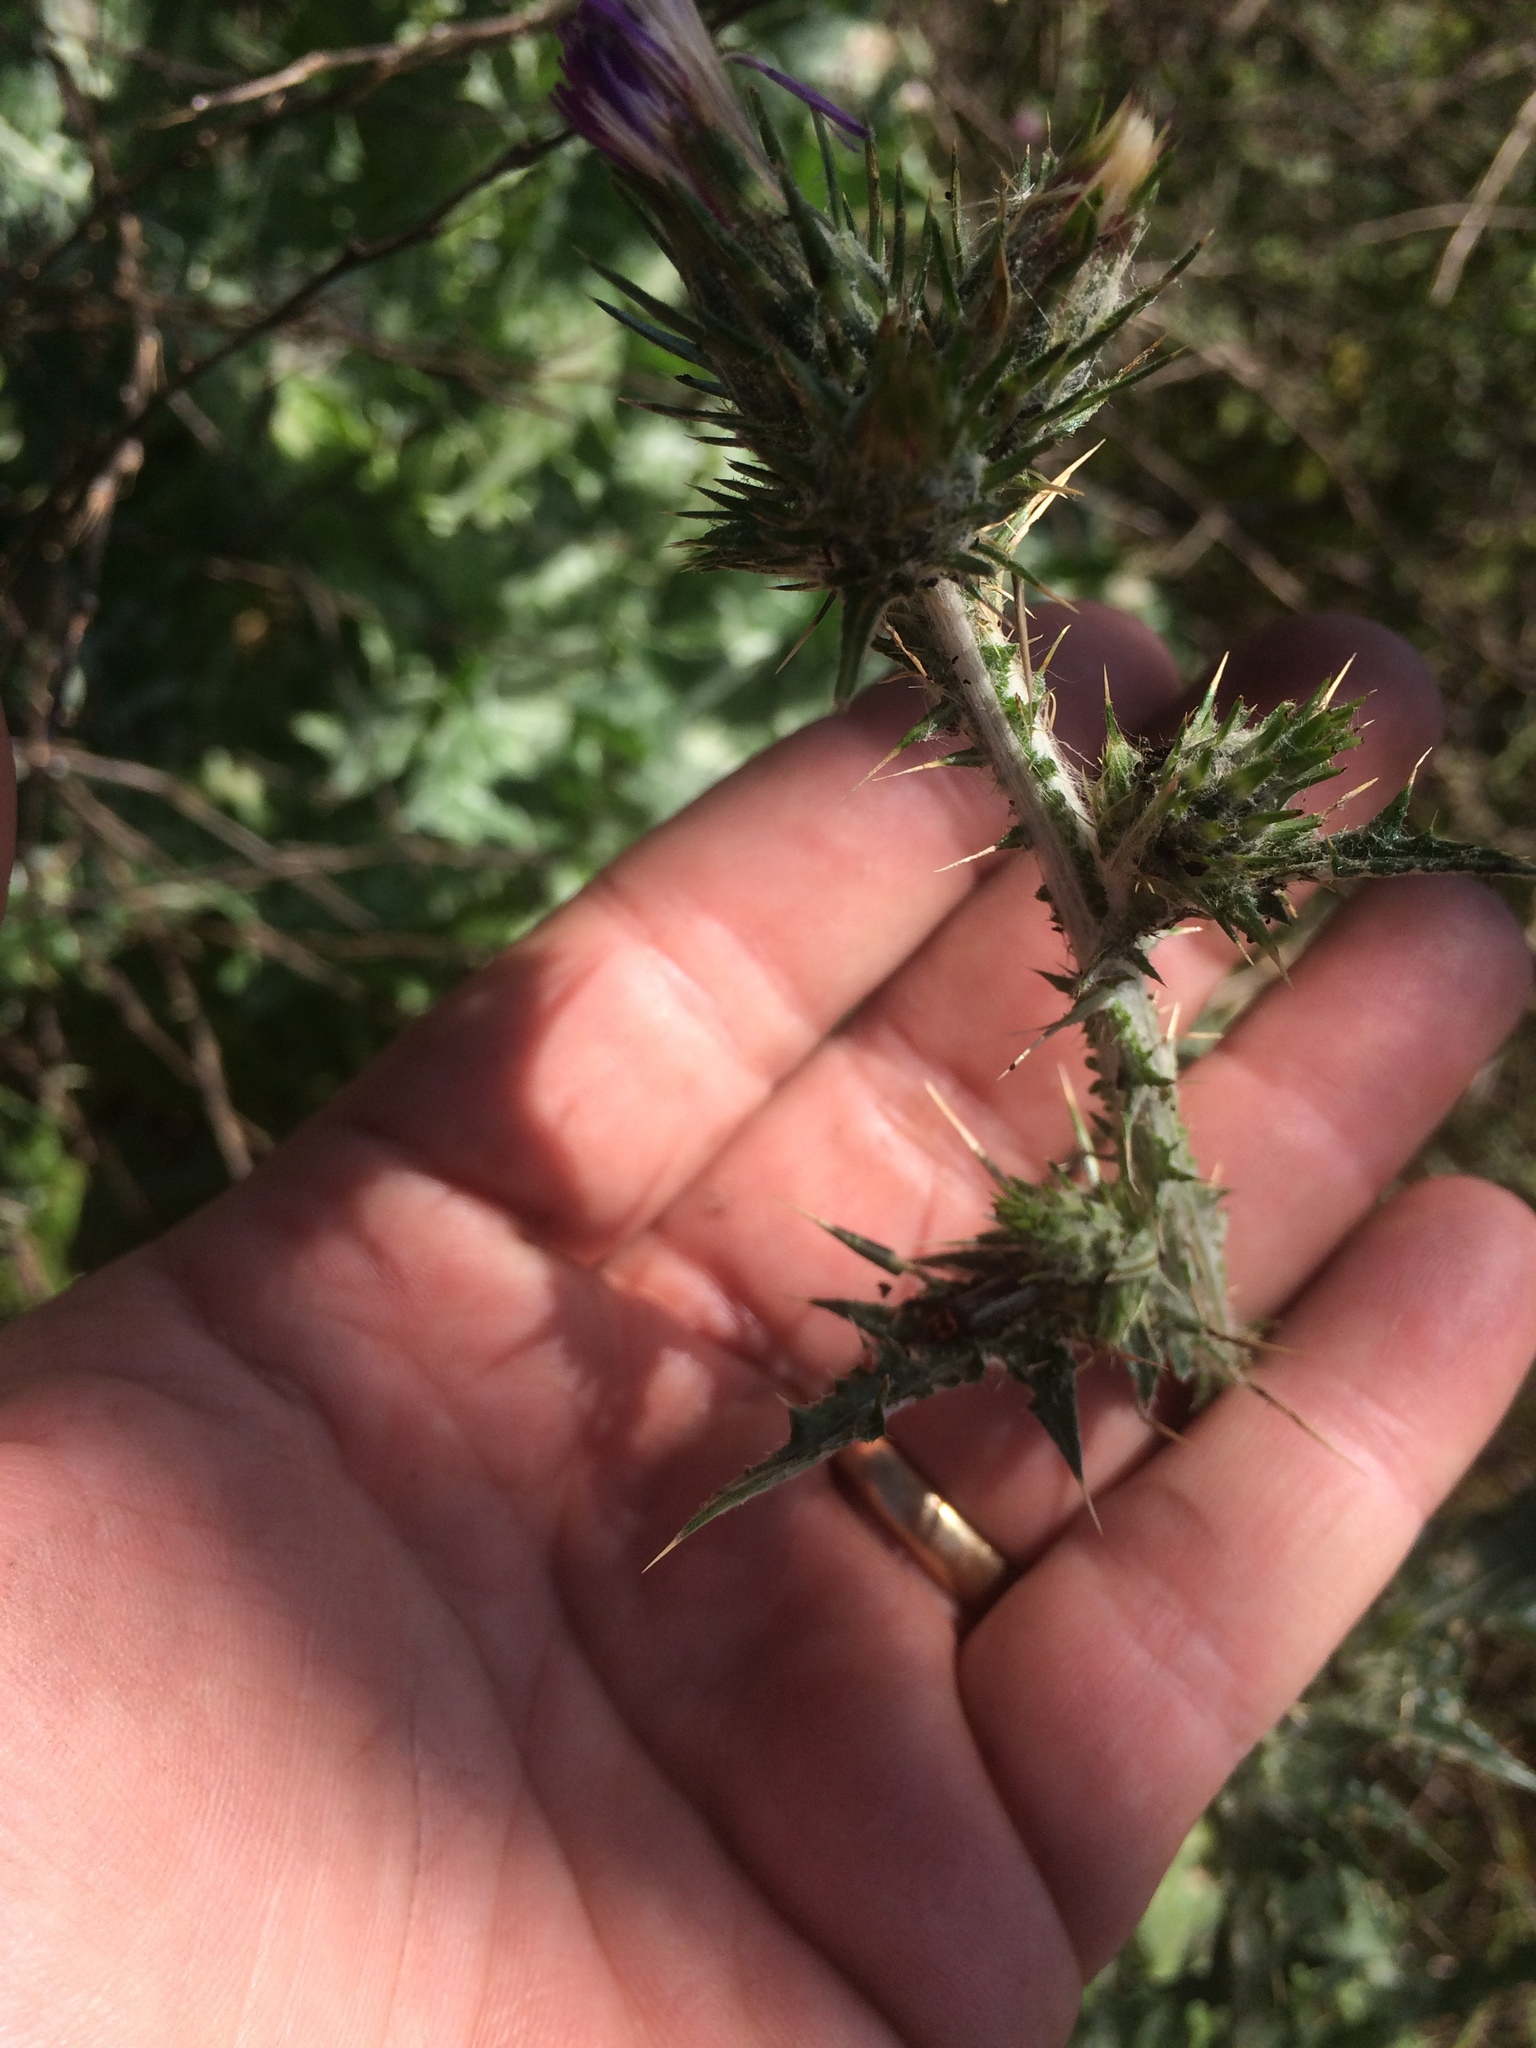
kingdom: Animalia
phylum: Arthropoda
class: Insecta
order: Coleoptera
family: Cantharidae
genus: Cyrtomoptera
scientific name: Cyrtomoptera divisa
